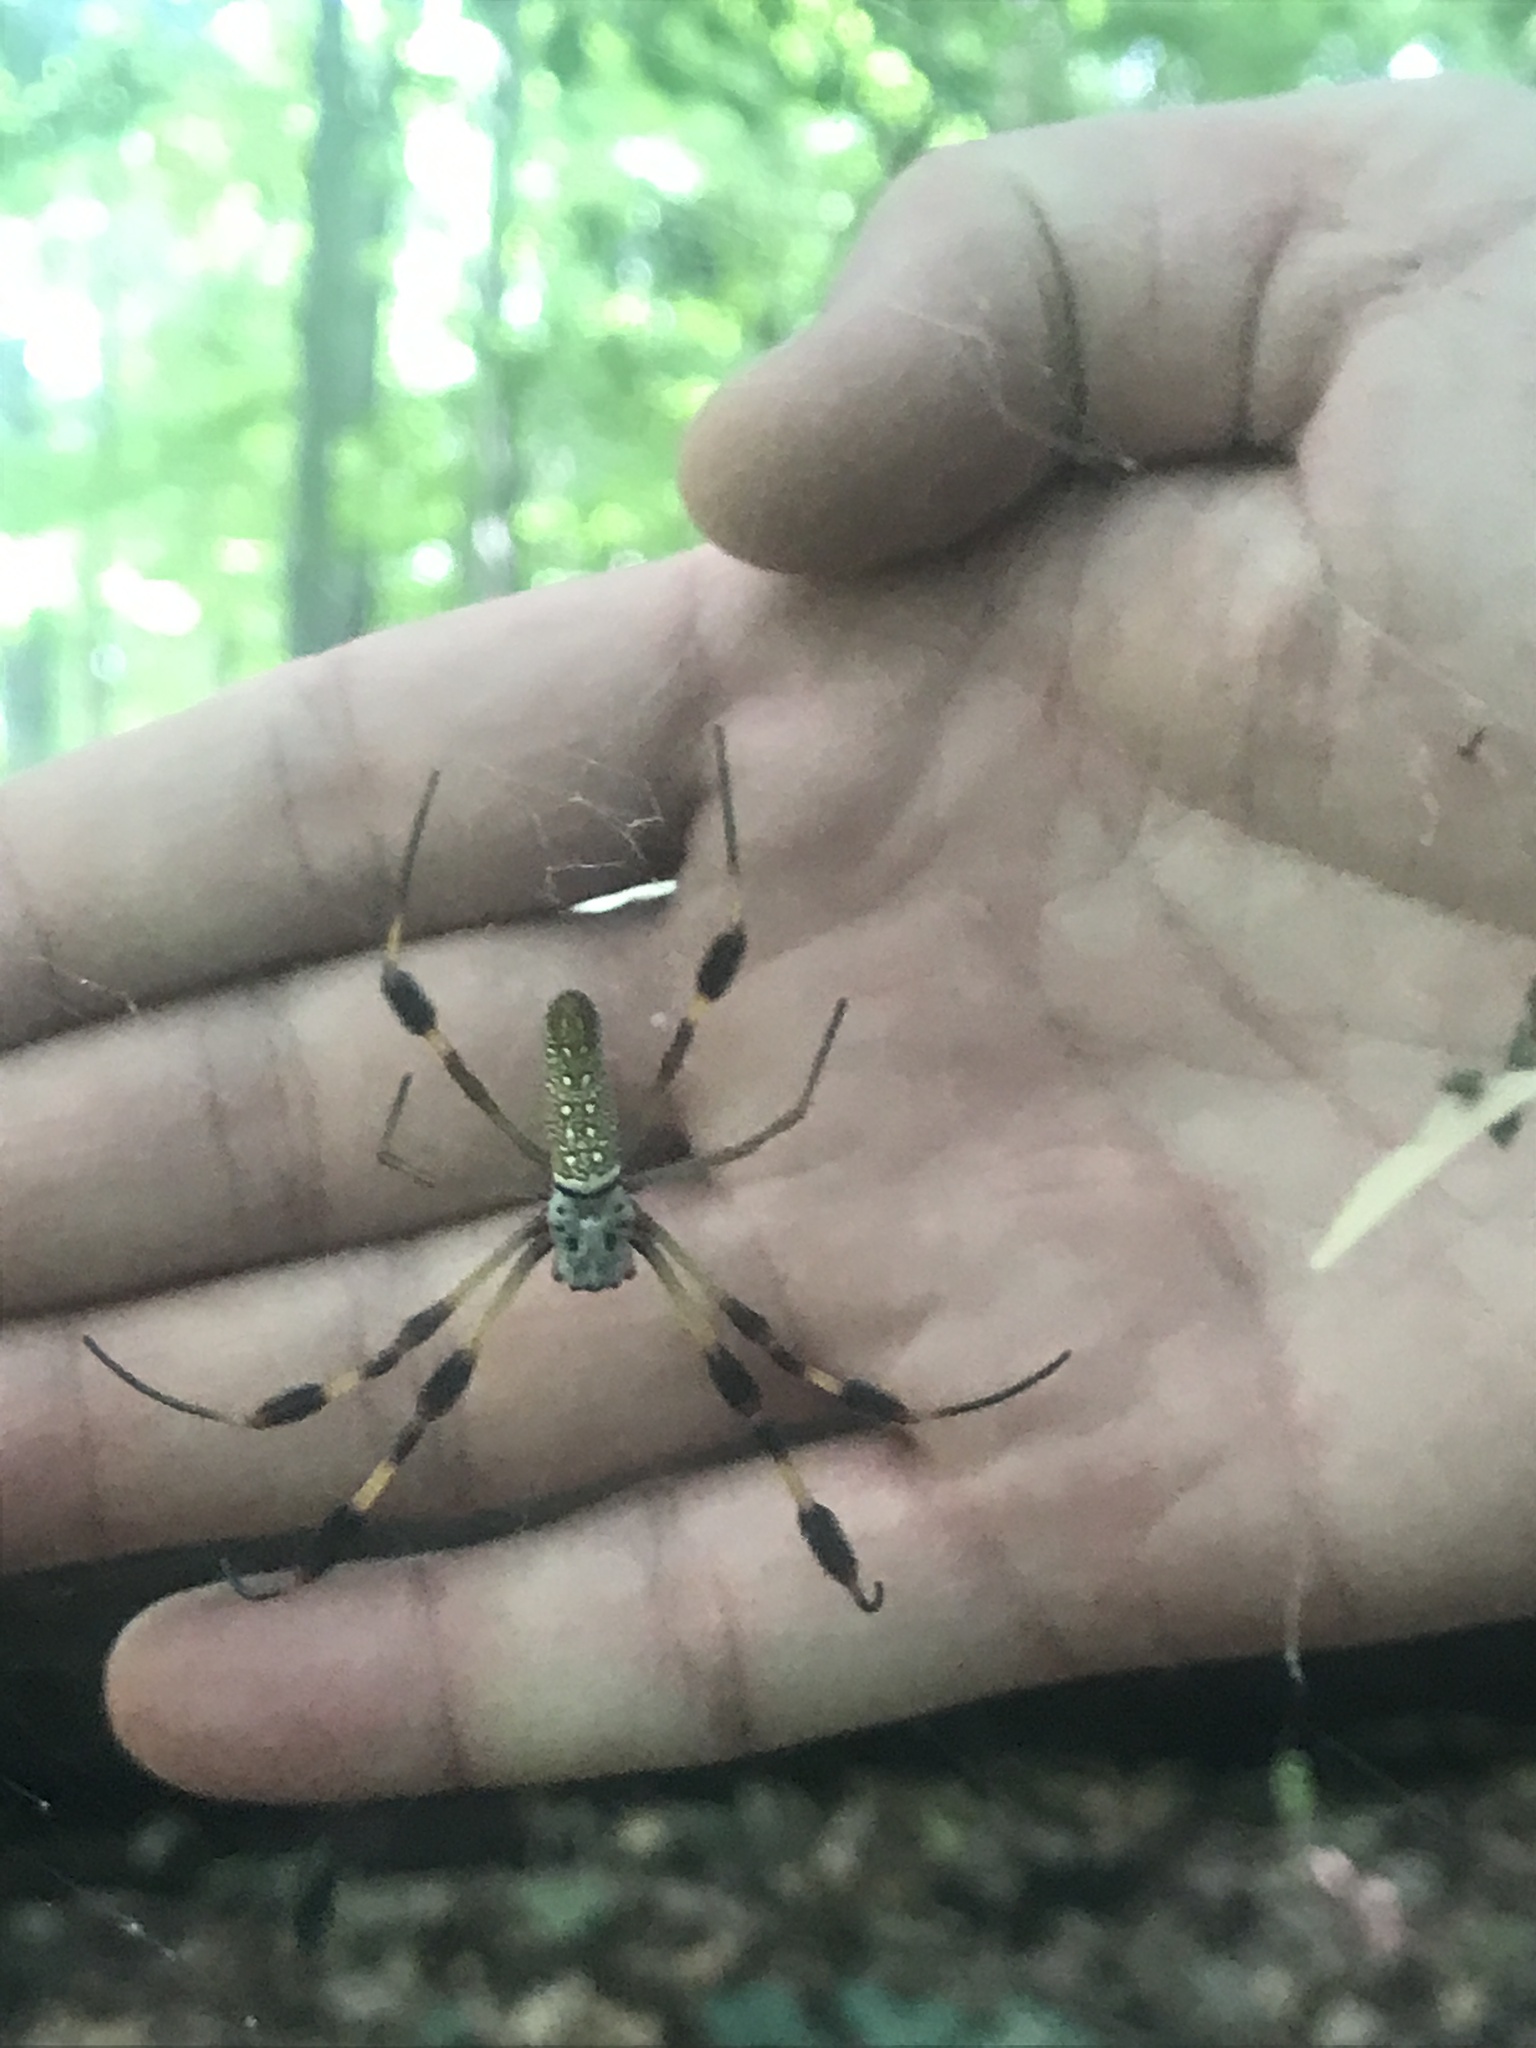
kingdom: Animalia
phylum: Arthropoda
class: Arachnida
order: Araneae
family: Araneidae
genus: Trichonephila
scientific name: Trichonephila clavipes
